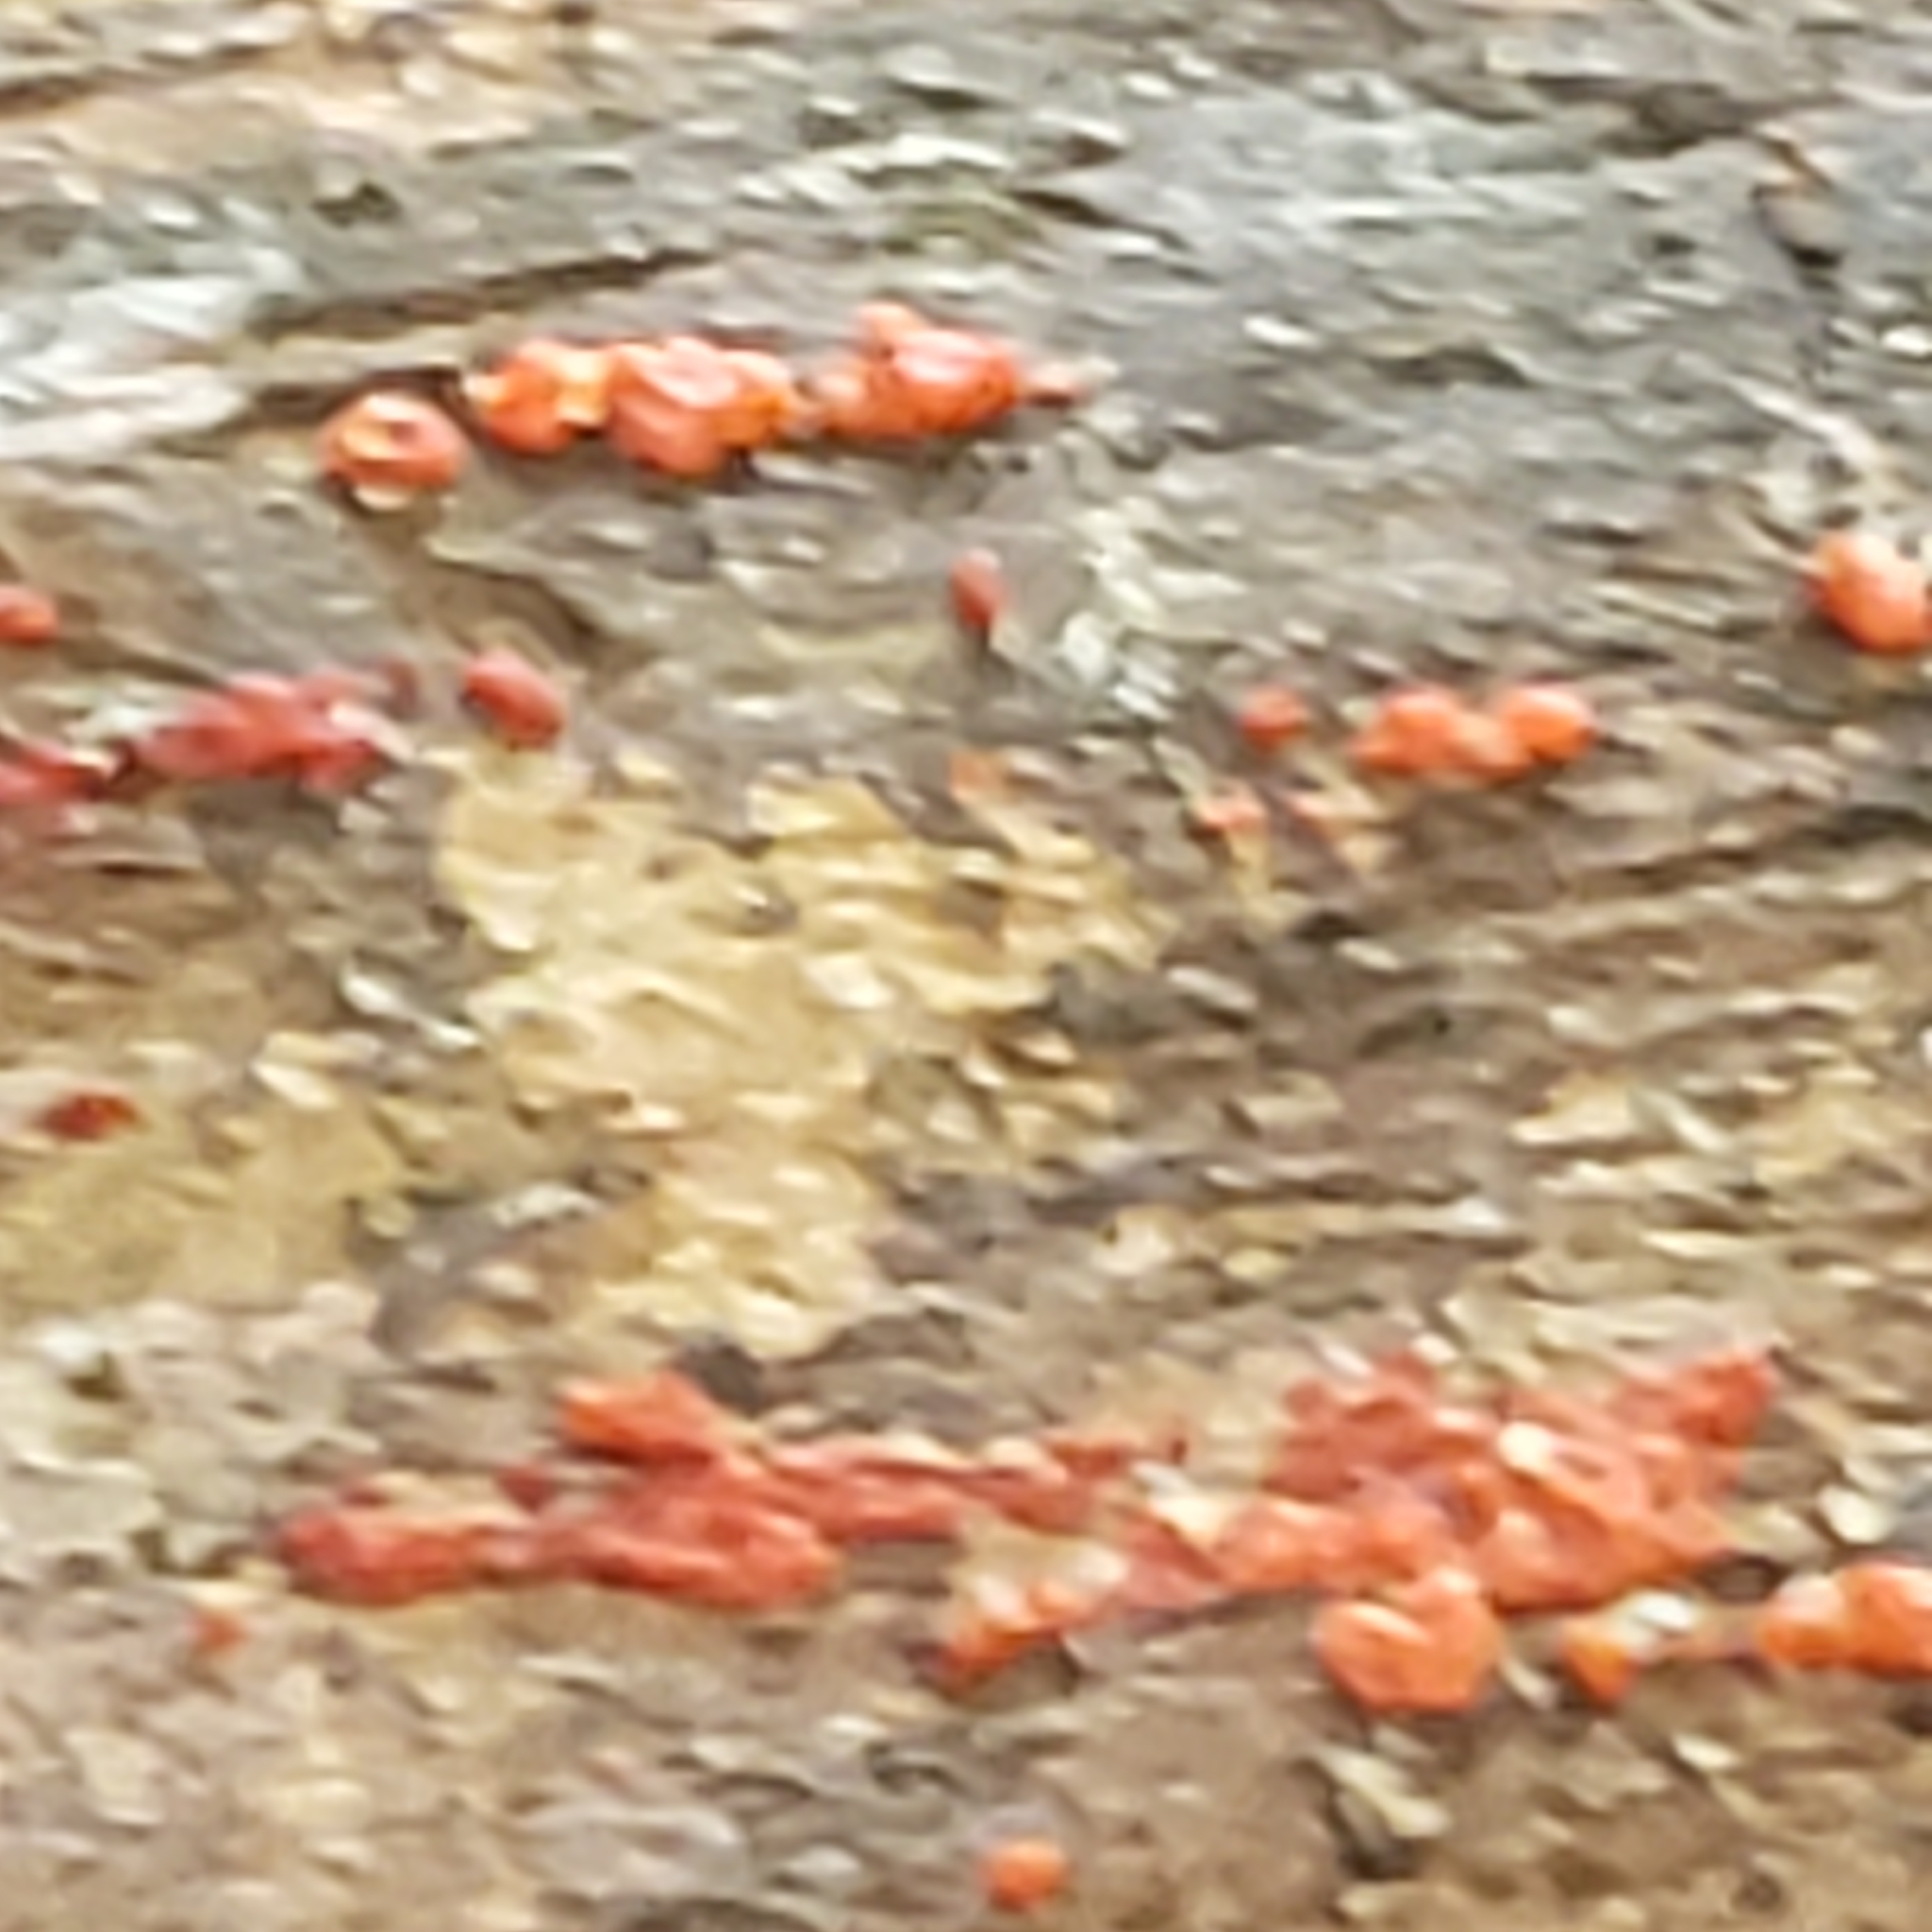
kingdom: Fungi
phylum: Basidiomycota
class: Agaricomycetes
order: Cantharellales
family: Tulasnellaceae
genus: Tulasnella
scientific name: Tulasnella aurantiaca
